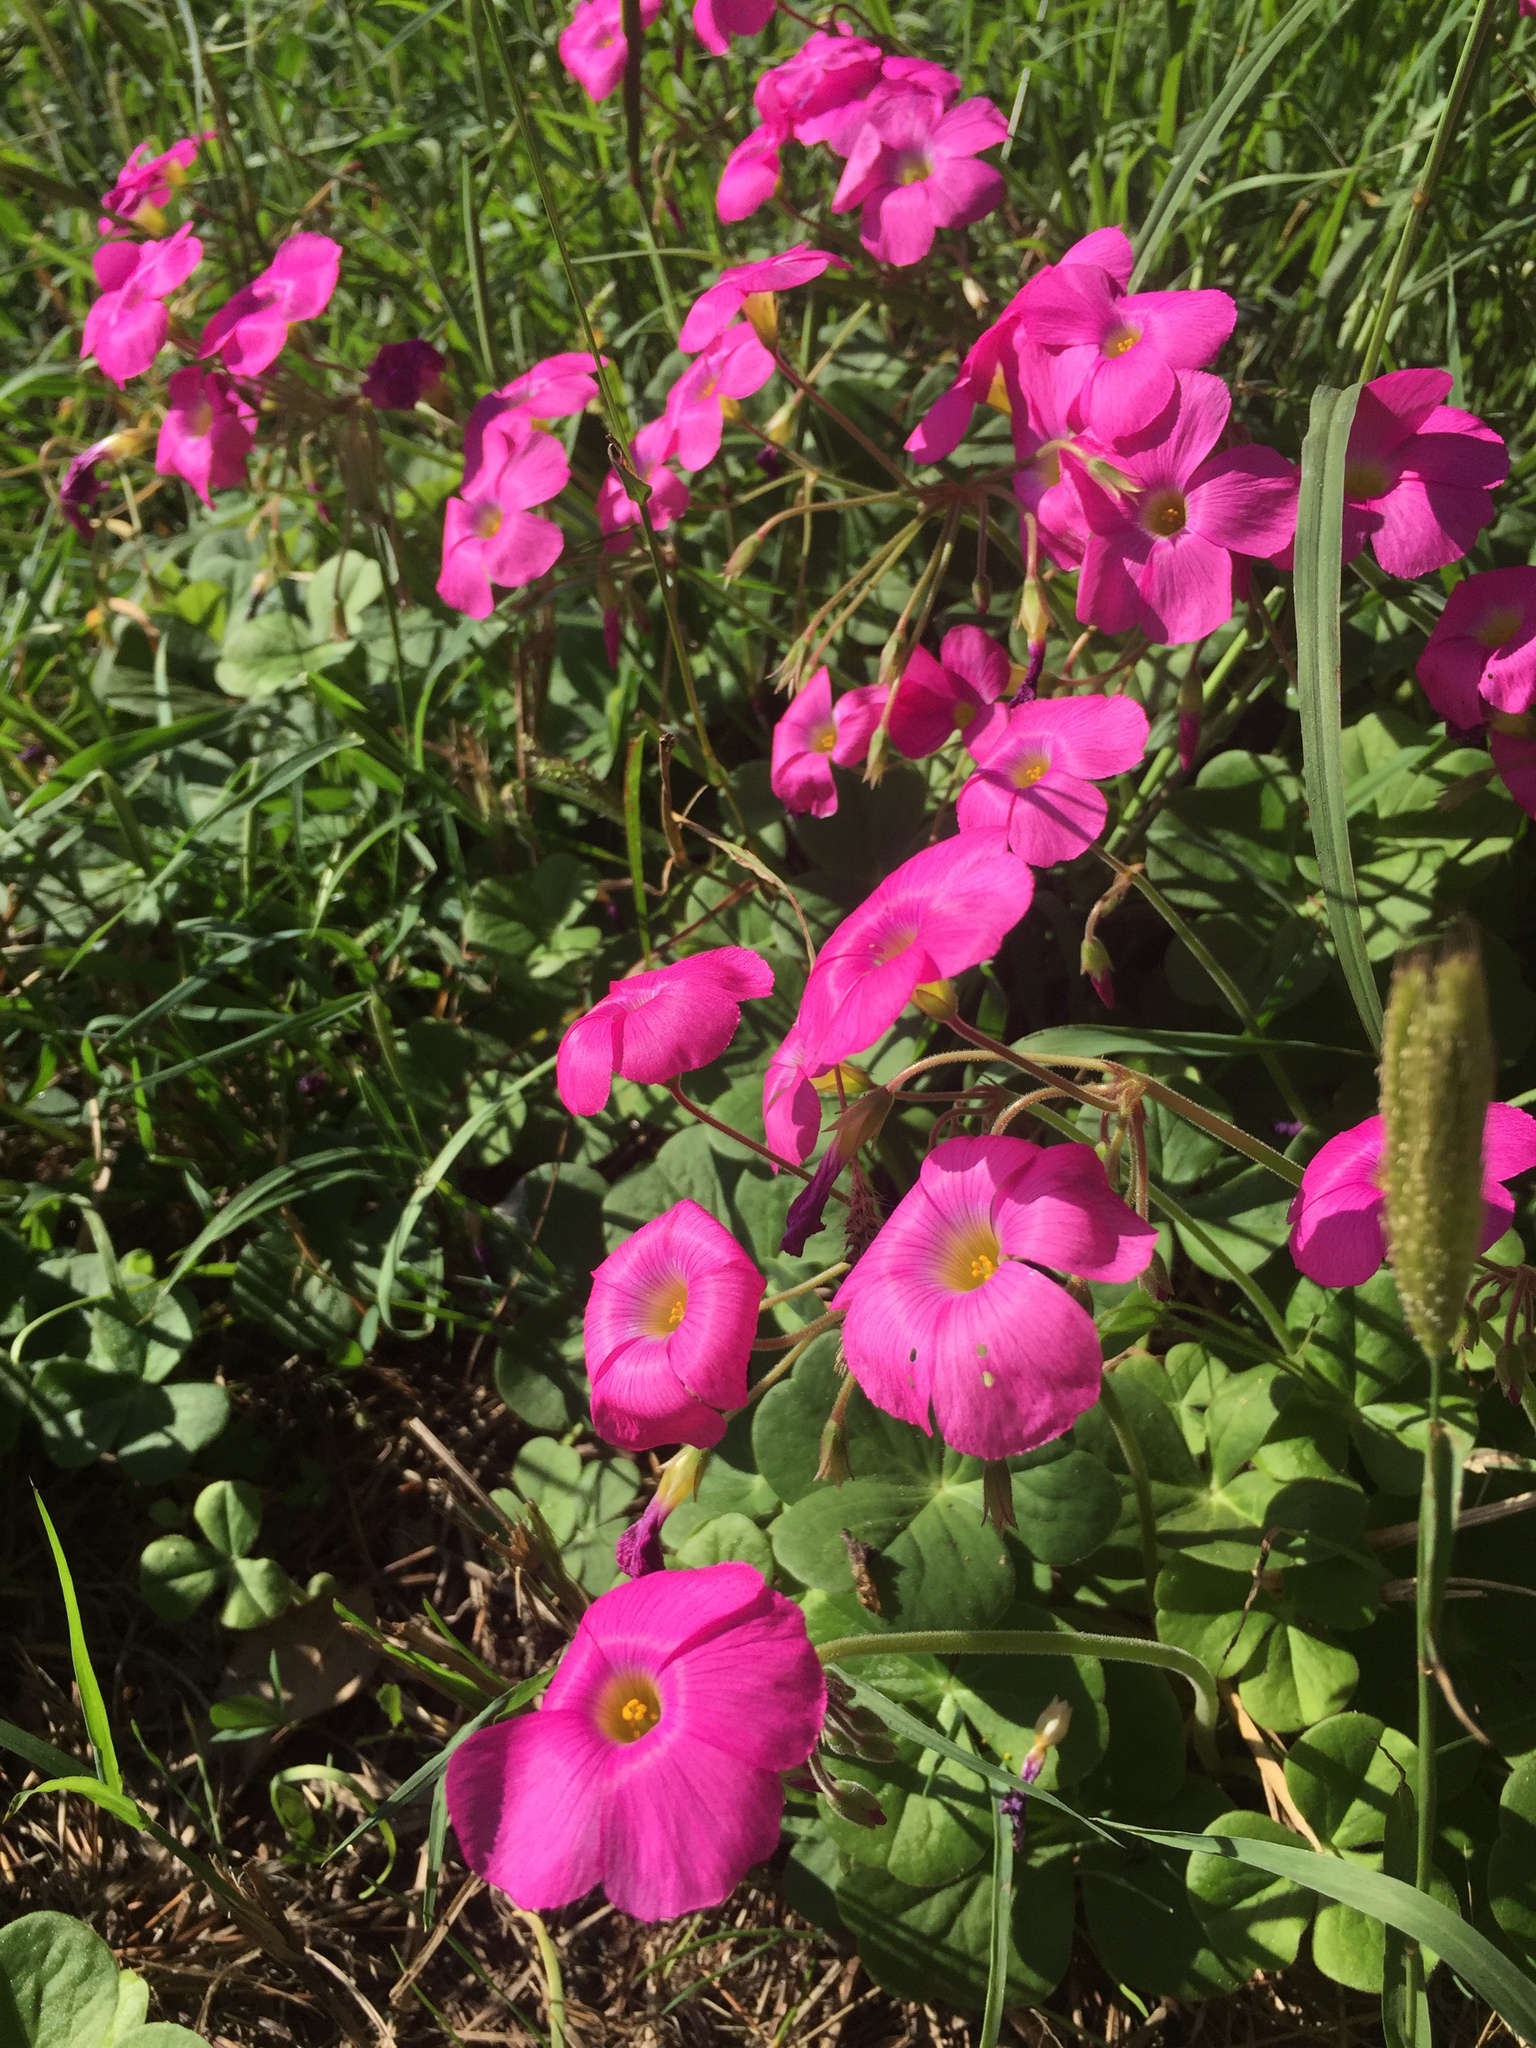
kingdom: Plantae
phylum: Tracheophyta
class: Magnoliopsida
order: Oxalidales
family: Oxalidaceae
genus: Oxalis
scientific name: Oxalis bowiei
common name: Bowie's wood-sorrel
